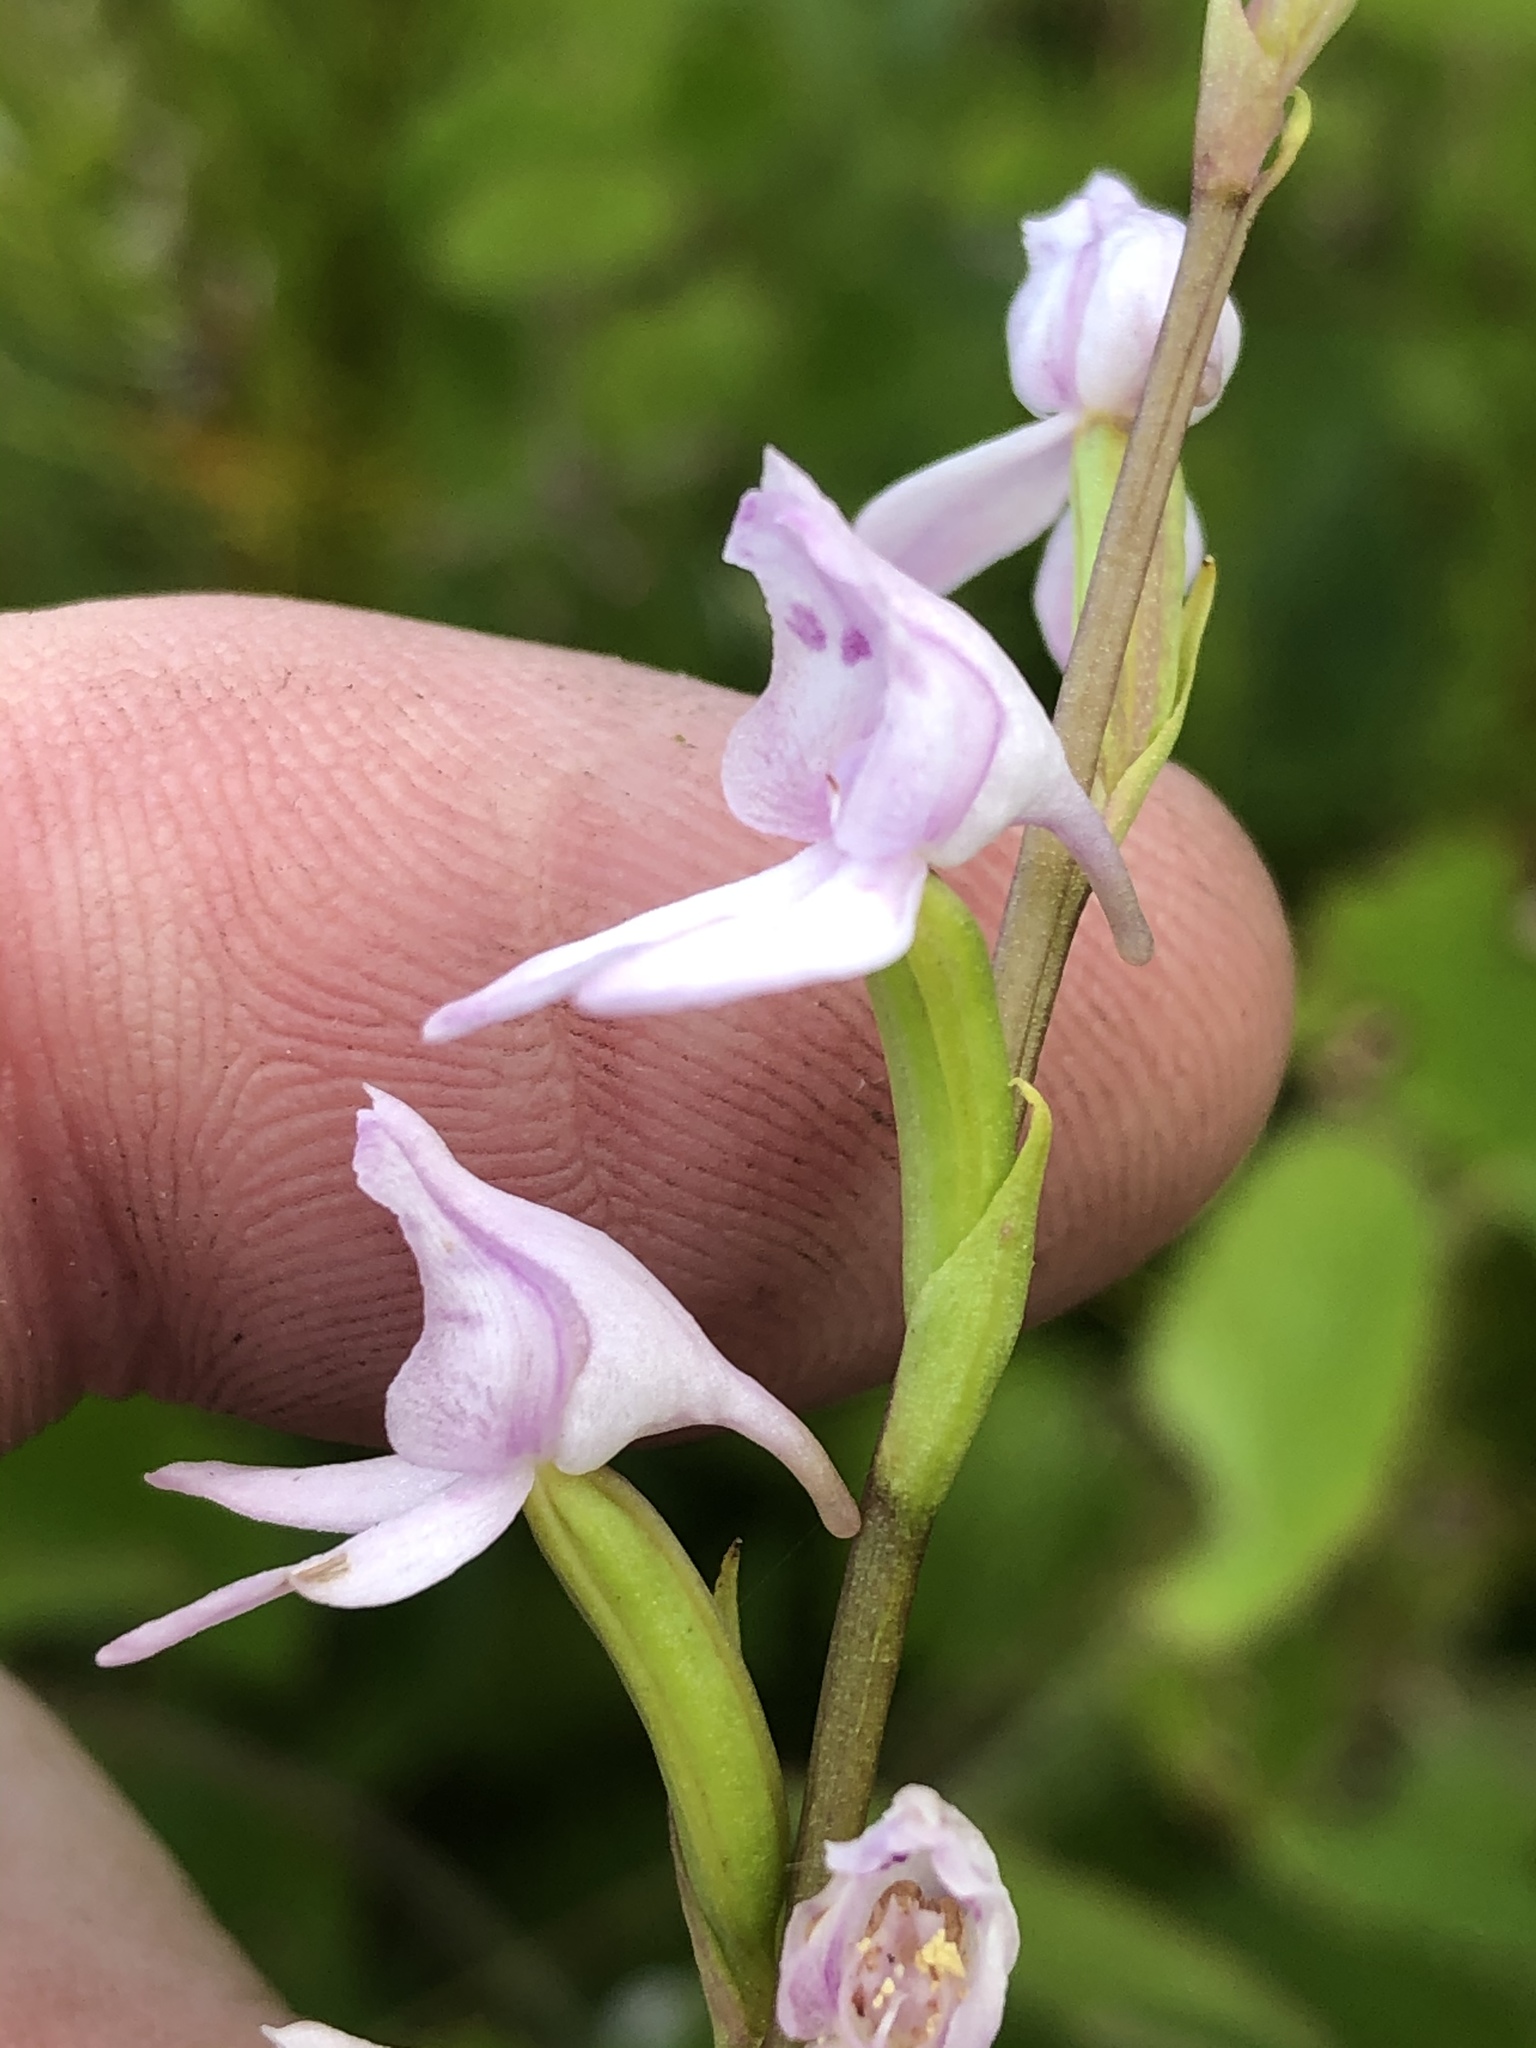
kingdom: Plantae
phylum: Tracheophyta
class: Liliopsida
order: Asparagales
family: Orchidaceae
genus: Brownleea
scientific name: Brownleea recurvata
